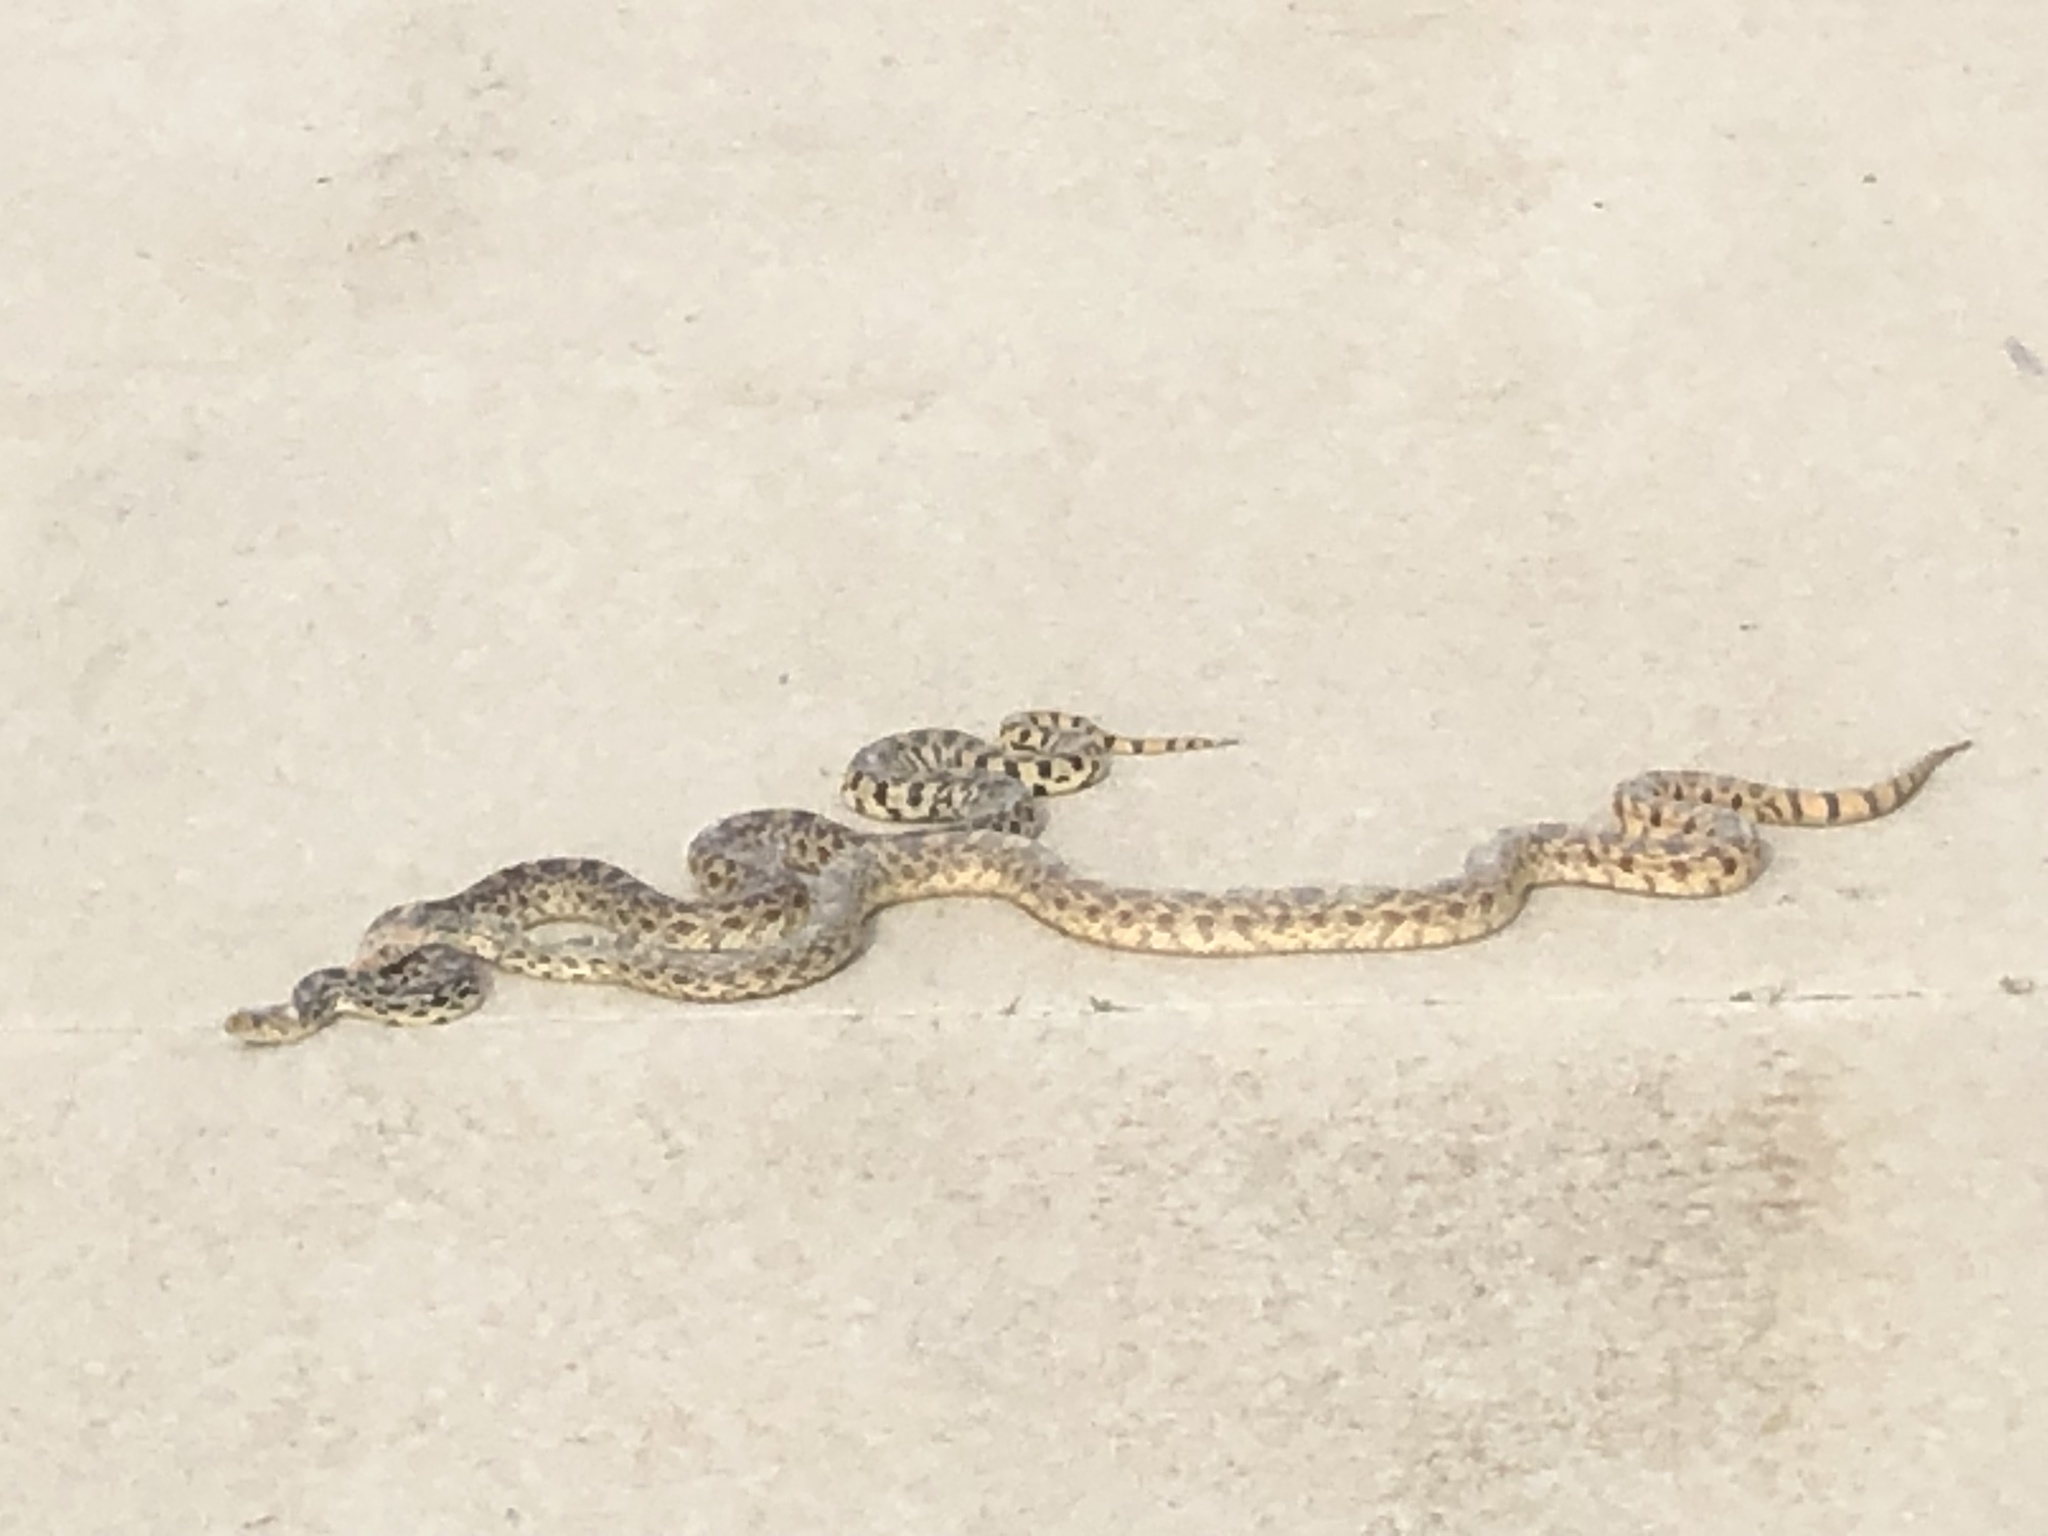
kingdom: Animalia
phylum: Chordata
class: Squamata
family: Colubridae
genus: Pituophis
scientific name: Pituophis catenifer
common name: Gopher snake
